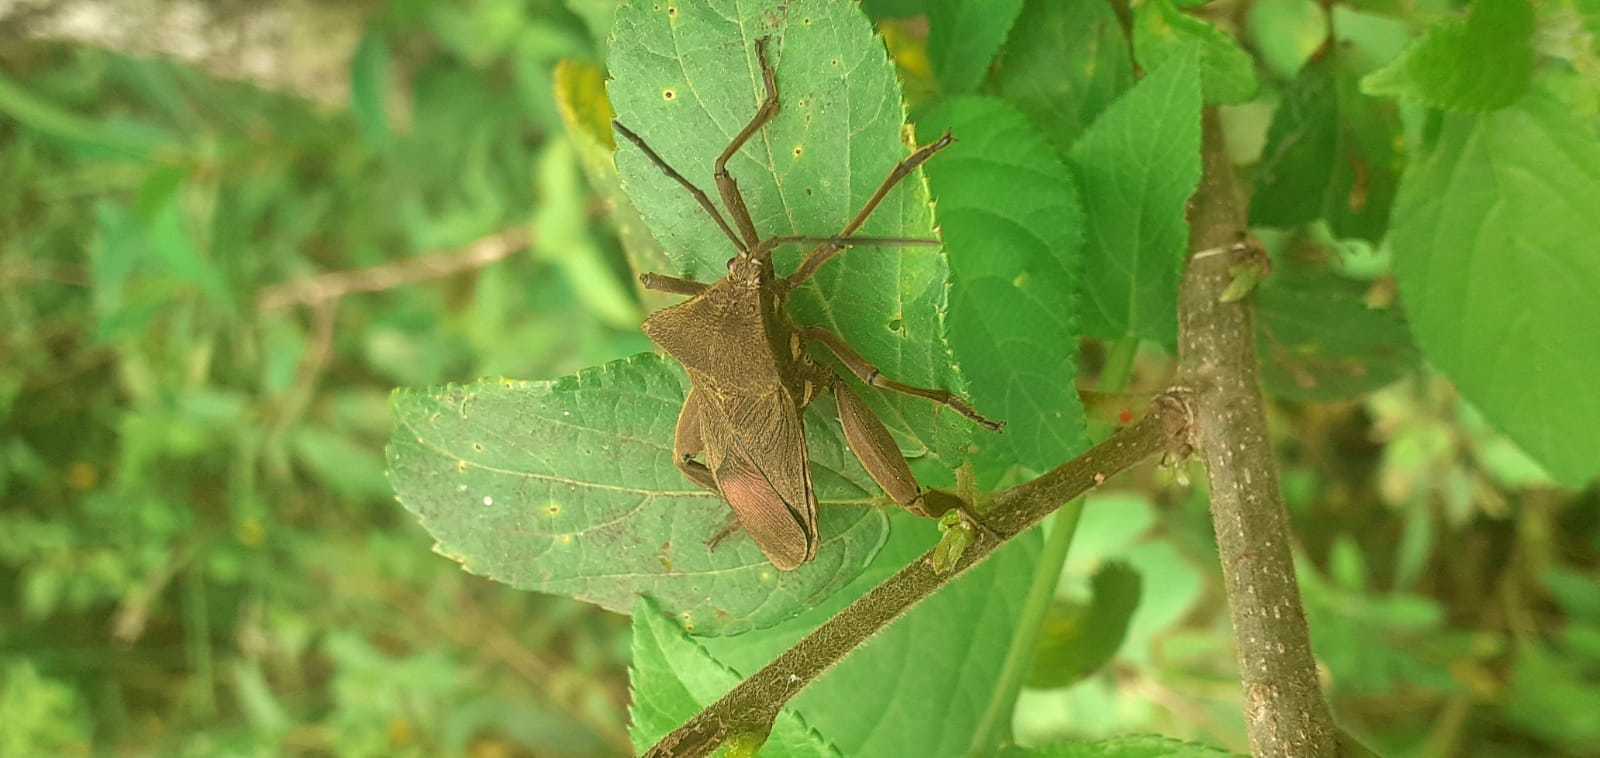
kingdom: Animalia
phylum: Arthropoda
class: Insecta
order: Hemiptera
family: Coreidae
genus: Thasus
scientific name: Thasus heteropus
